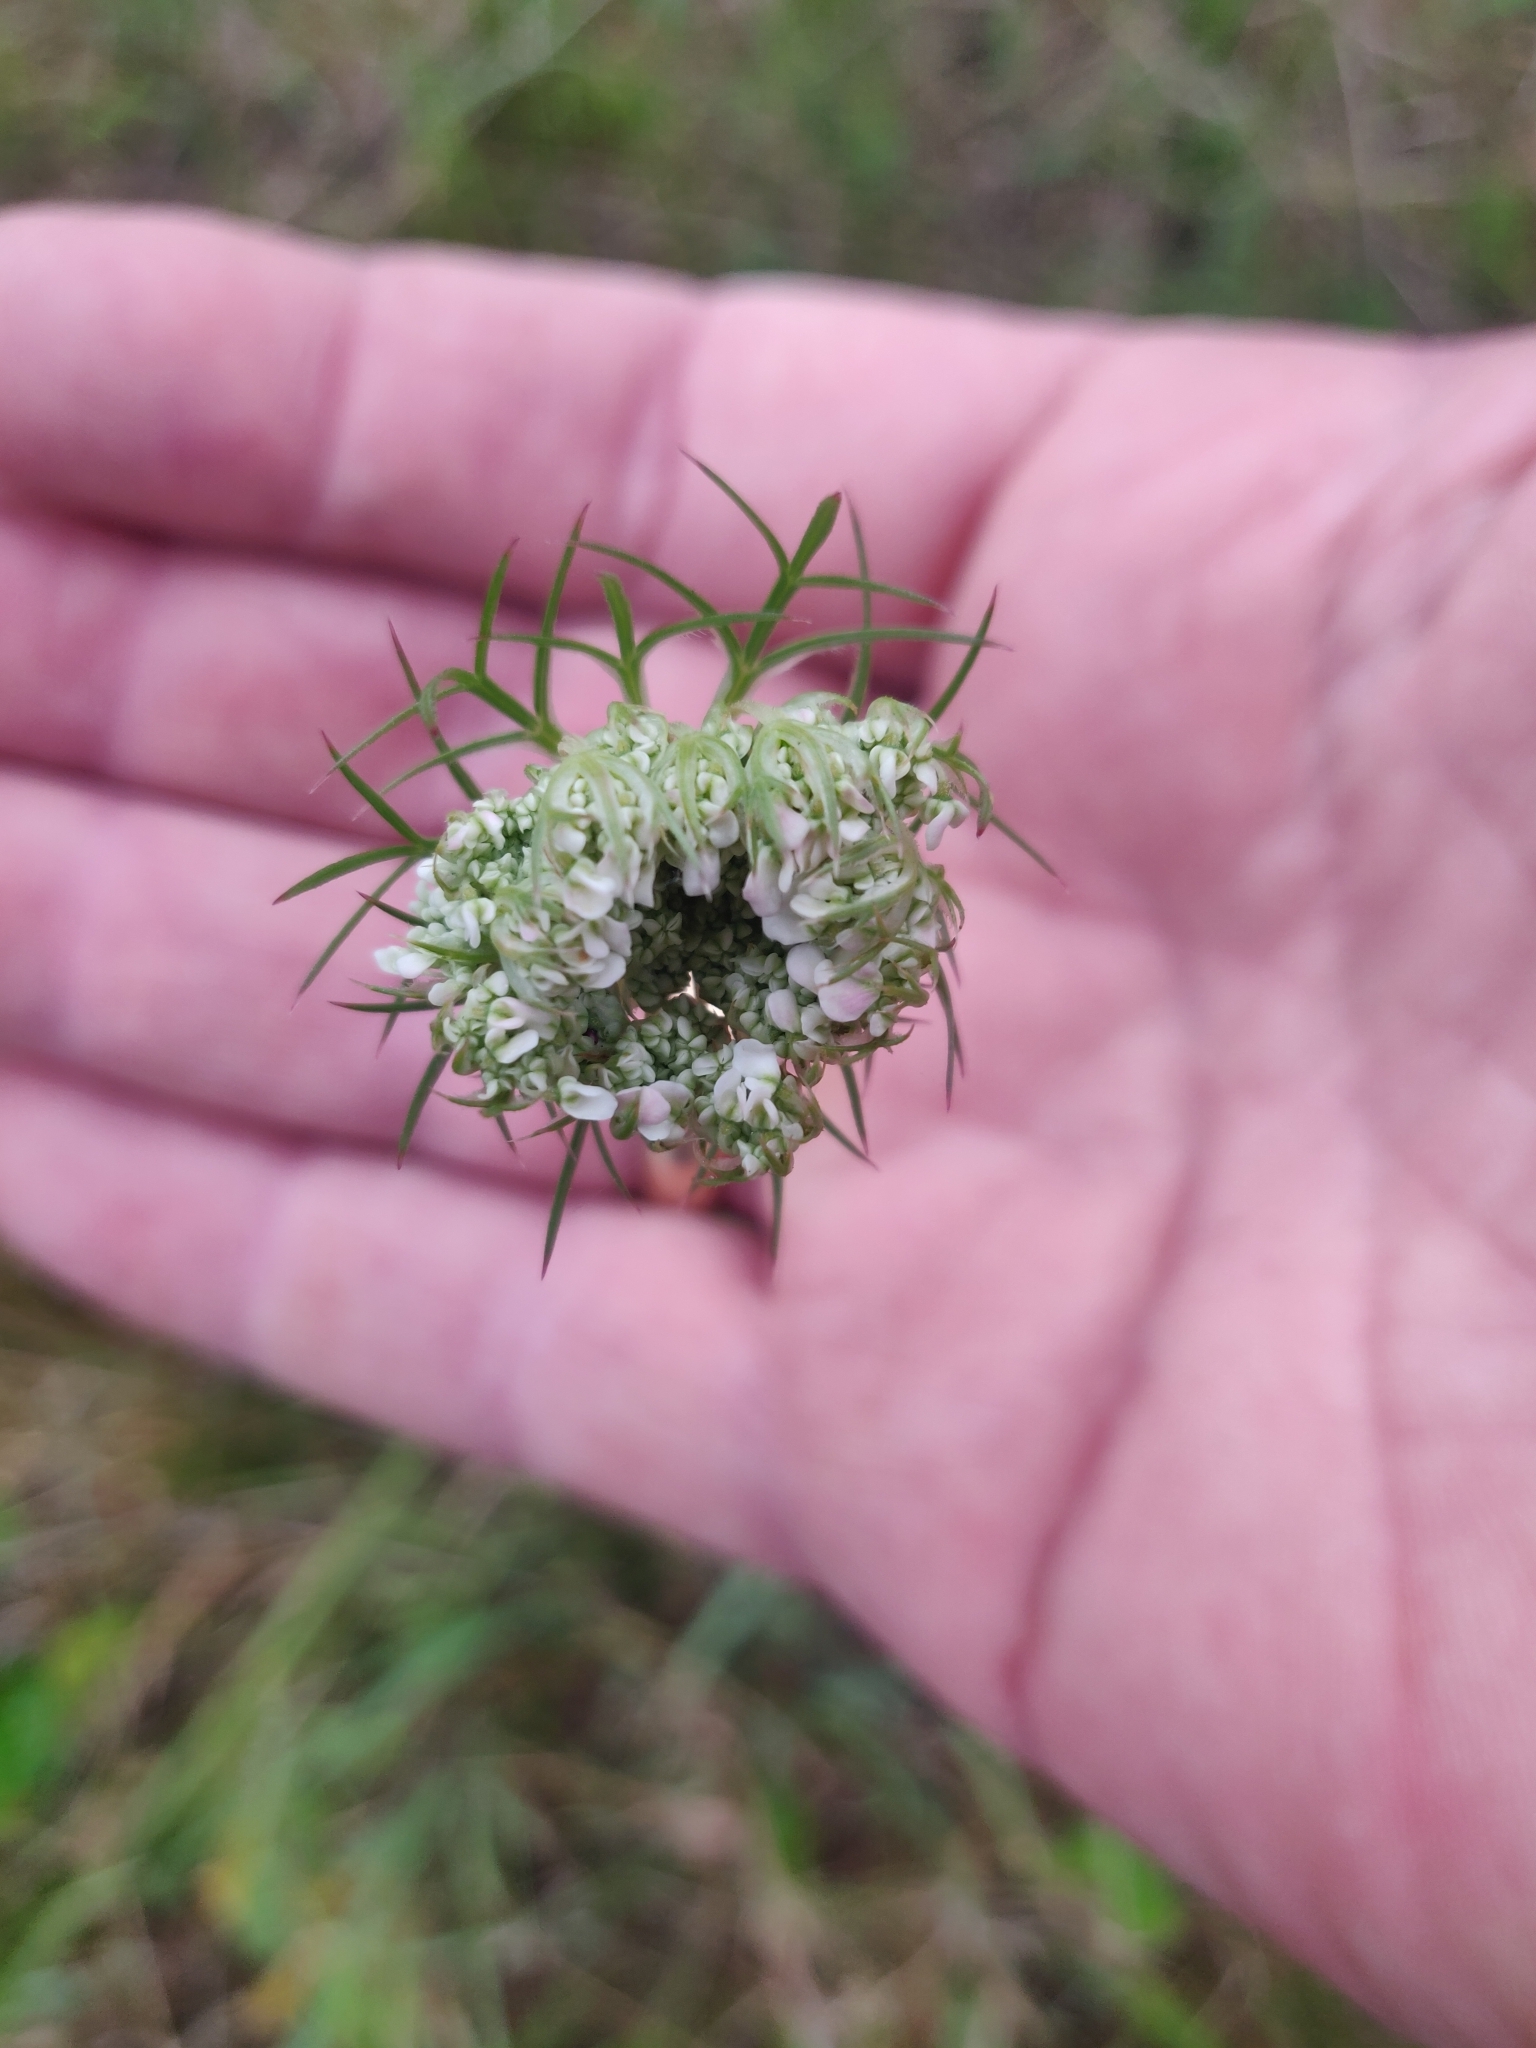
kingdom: Plantae
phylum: Tracheophyta
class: Magnoliopsida
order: Apiales
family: Apiaceae
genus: Daucus
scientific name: Daucus carota
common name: Wild carrot
